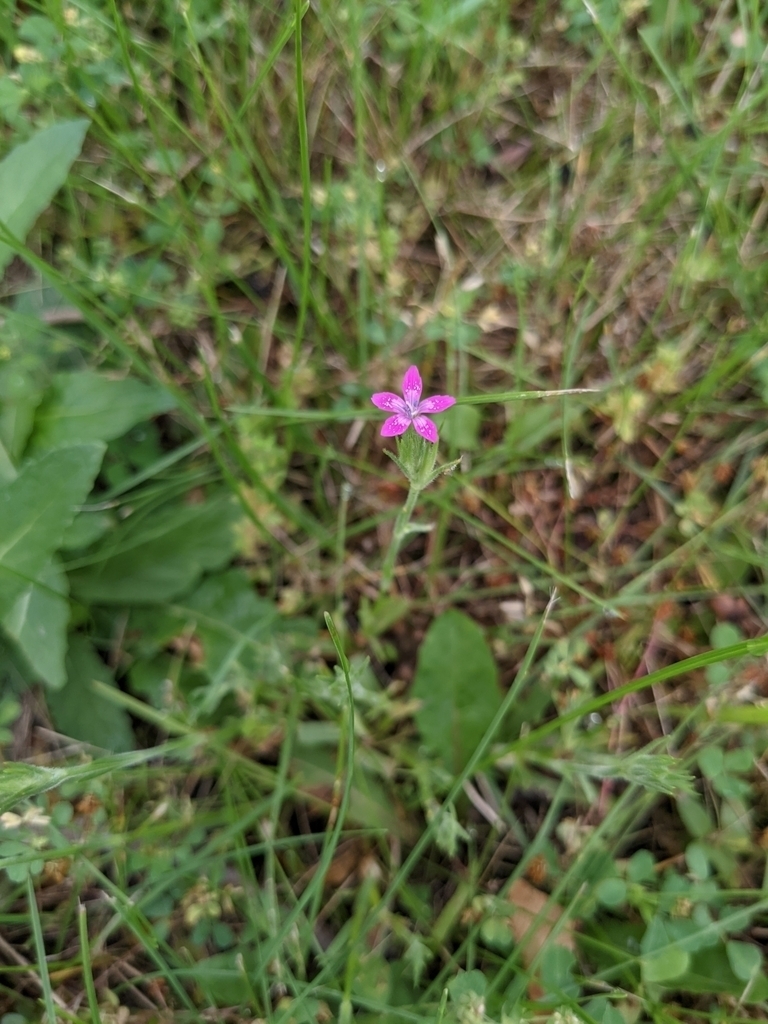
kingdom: Plantae
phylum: Tracheophyta
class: Magnoliopsida
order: Caryophyllales
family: Caryophyllaceae
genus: Dianthus
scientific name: Dianthus armeria
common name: Deptford pink
